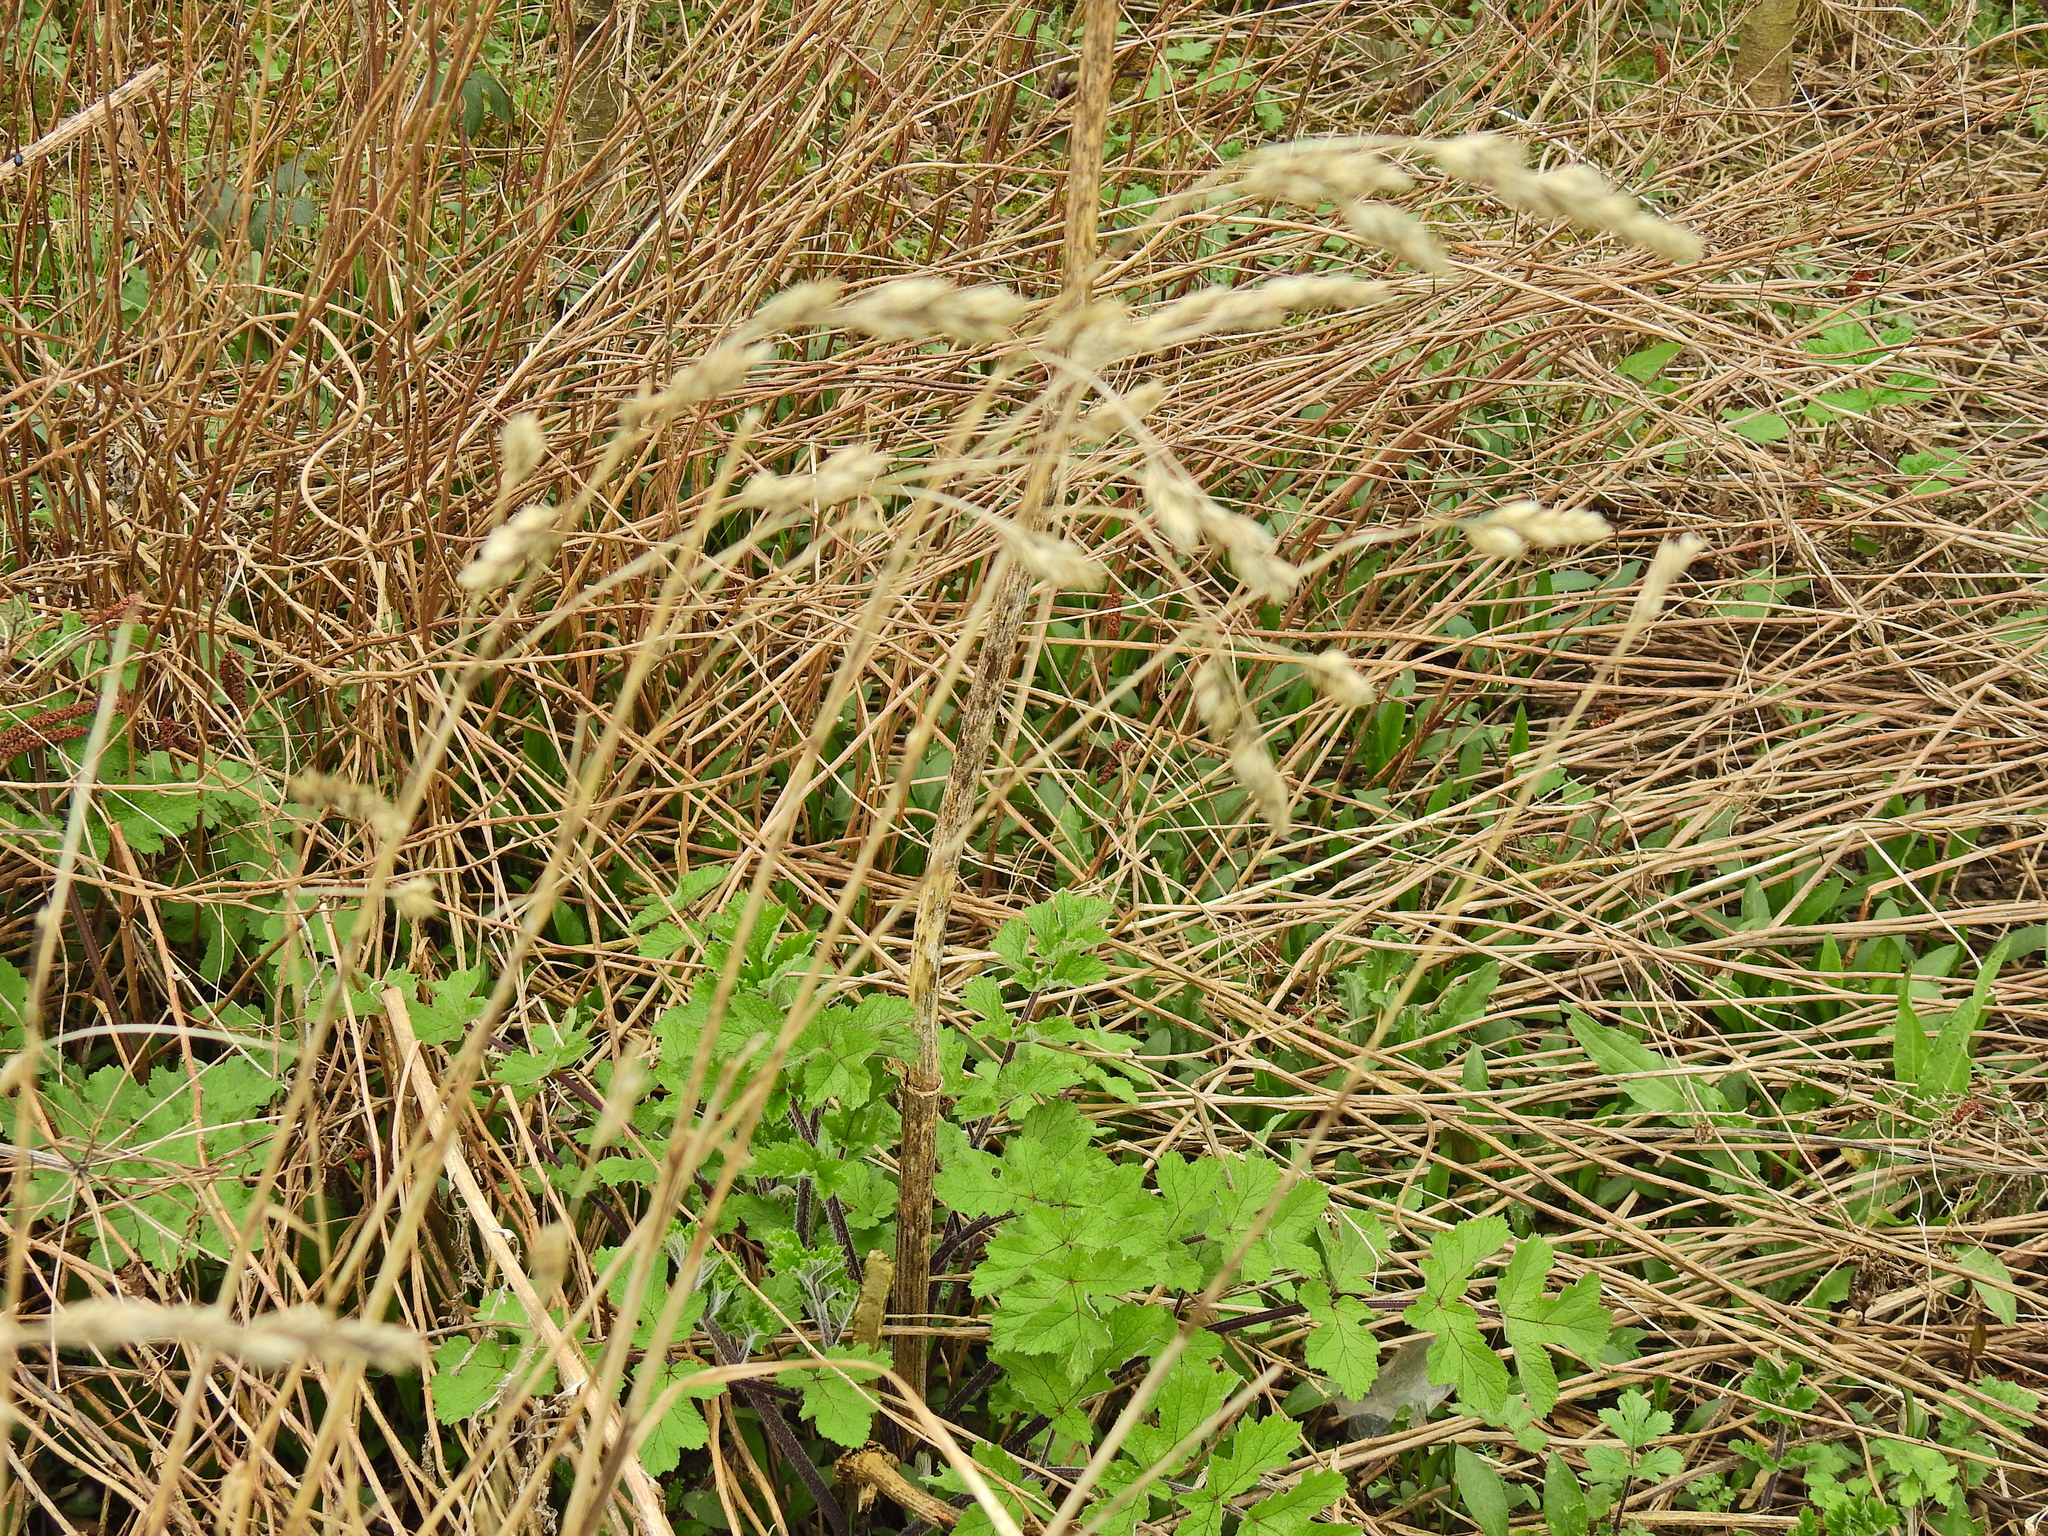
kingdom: Plantae
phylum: Tracheophyta
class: Liliopsida
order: Poales
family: Poaceae
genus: Dactylis
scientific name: Dactylis glomerata
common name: Orchardgrass
